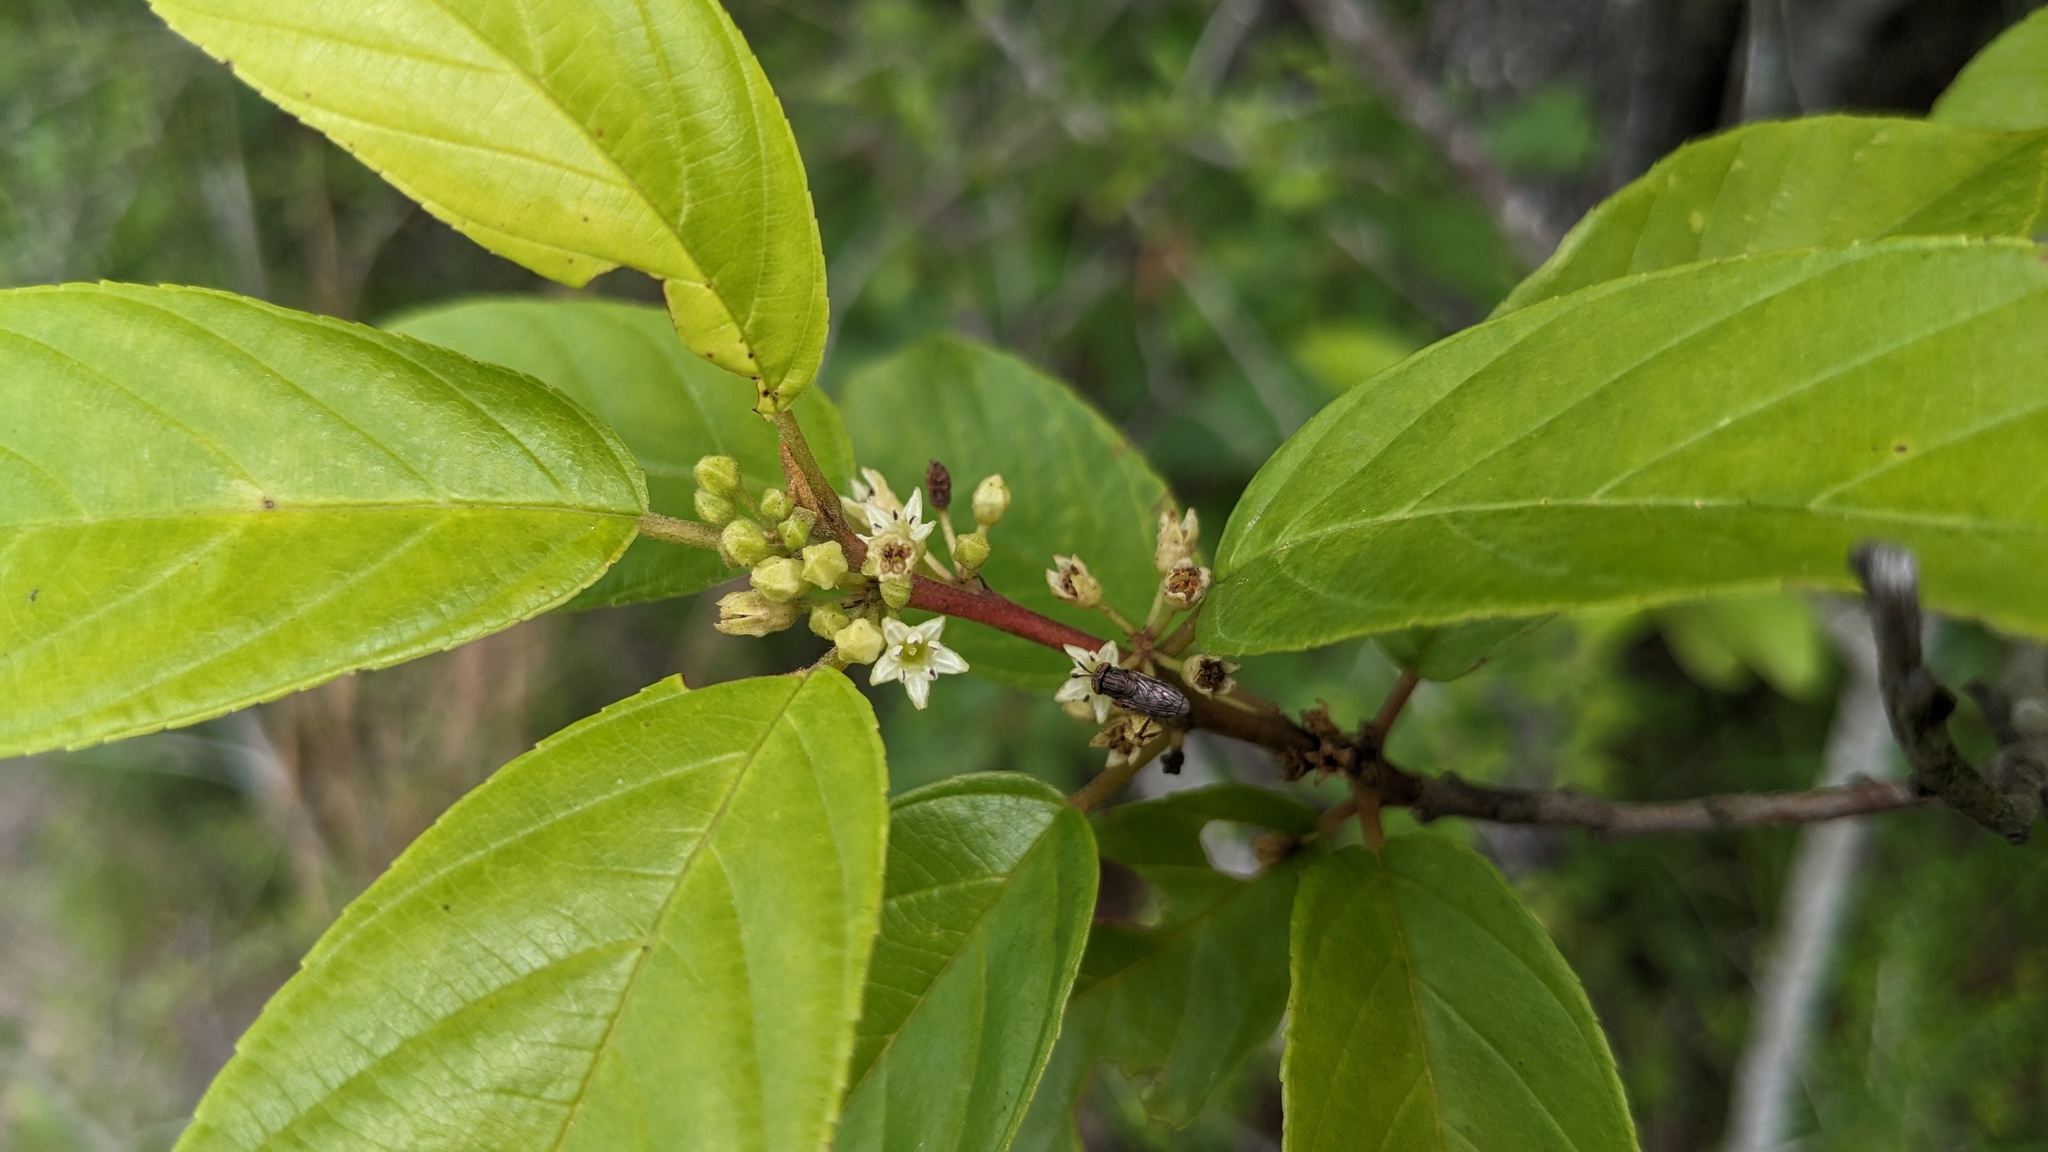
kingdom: Plantae
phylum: Tracheophyta
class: Magnoliopsida
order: Rosales
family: Rhamnaceae
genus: Frangula
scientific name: Frangula caroliniana
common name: Carolina buckthorn
